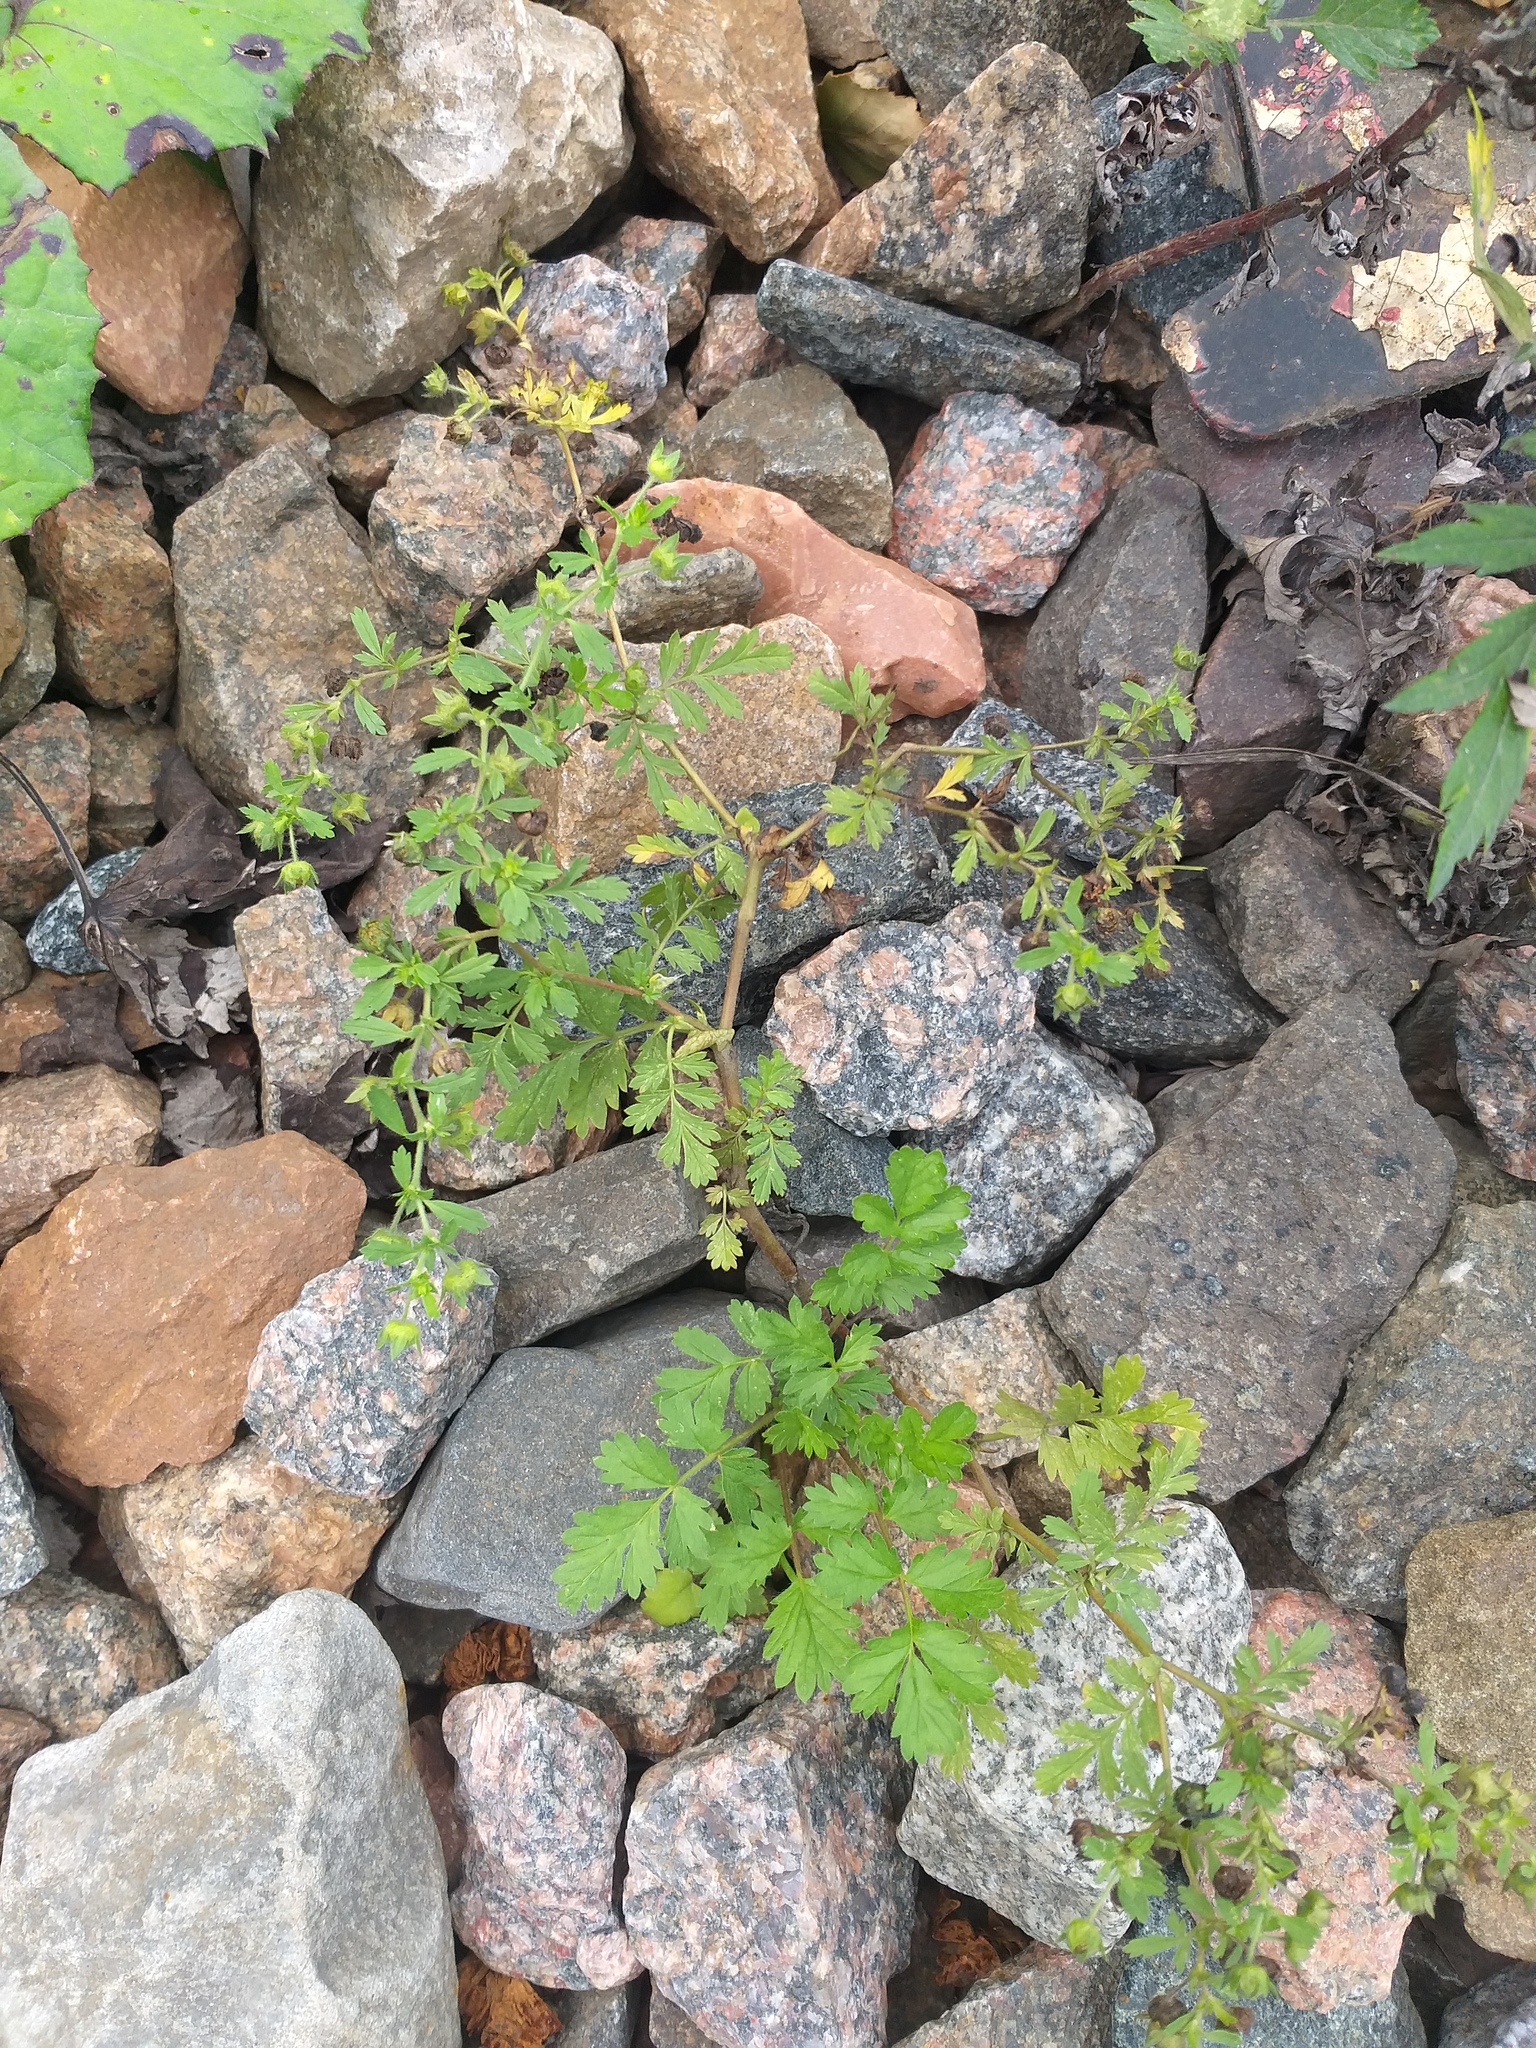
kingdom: Plantae
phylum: Tracheophyta
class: Magnoliopsida
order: Rosales
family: Rosaceae
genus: Potentilla
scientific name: Potentilla supina
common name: Prostrate cinquefoil
